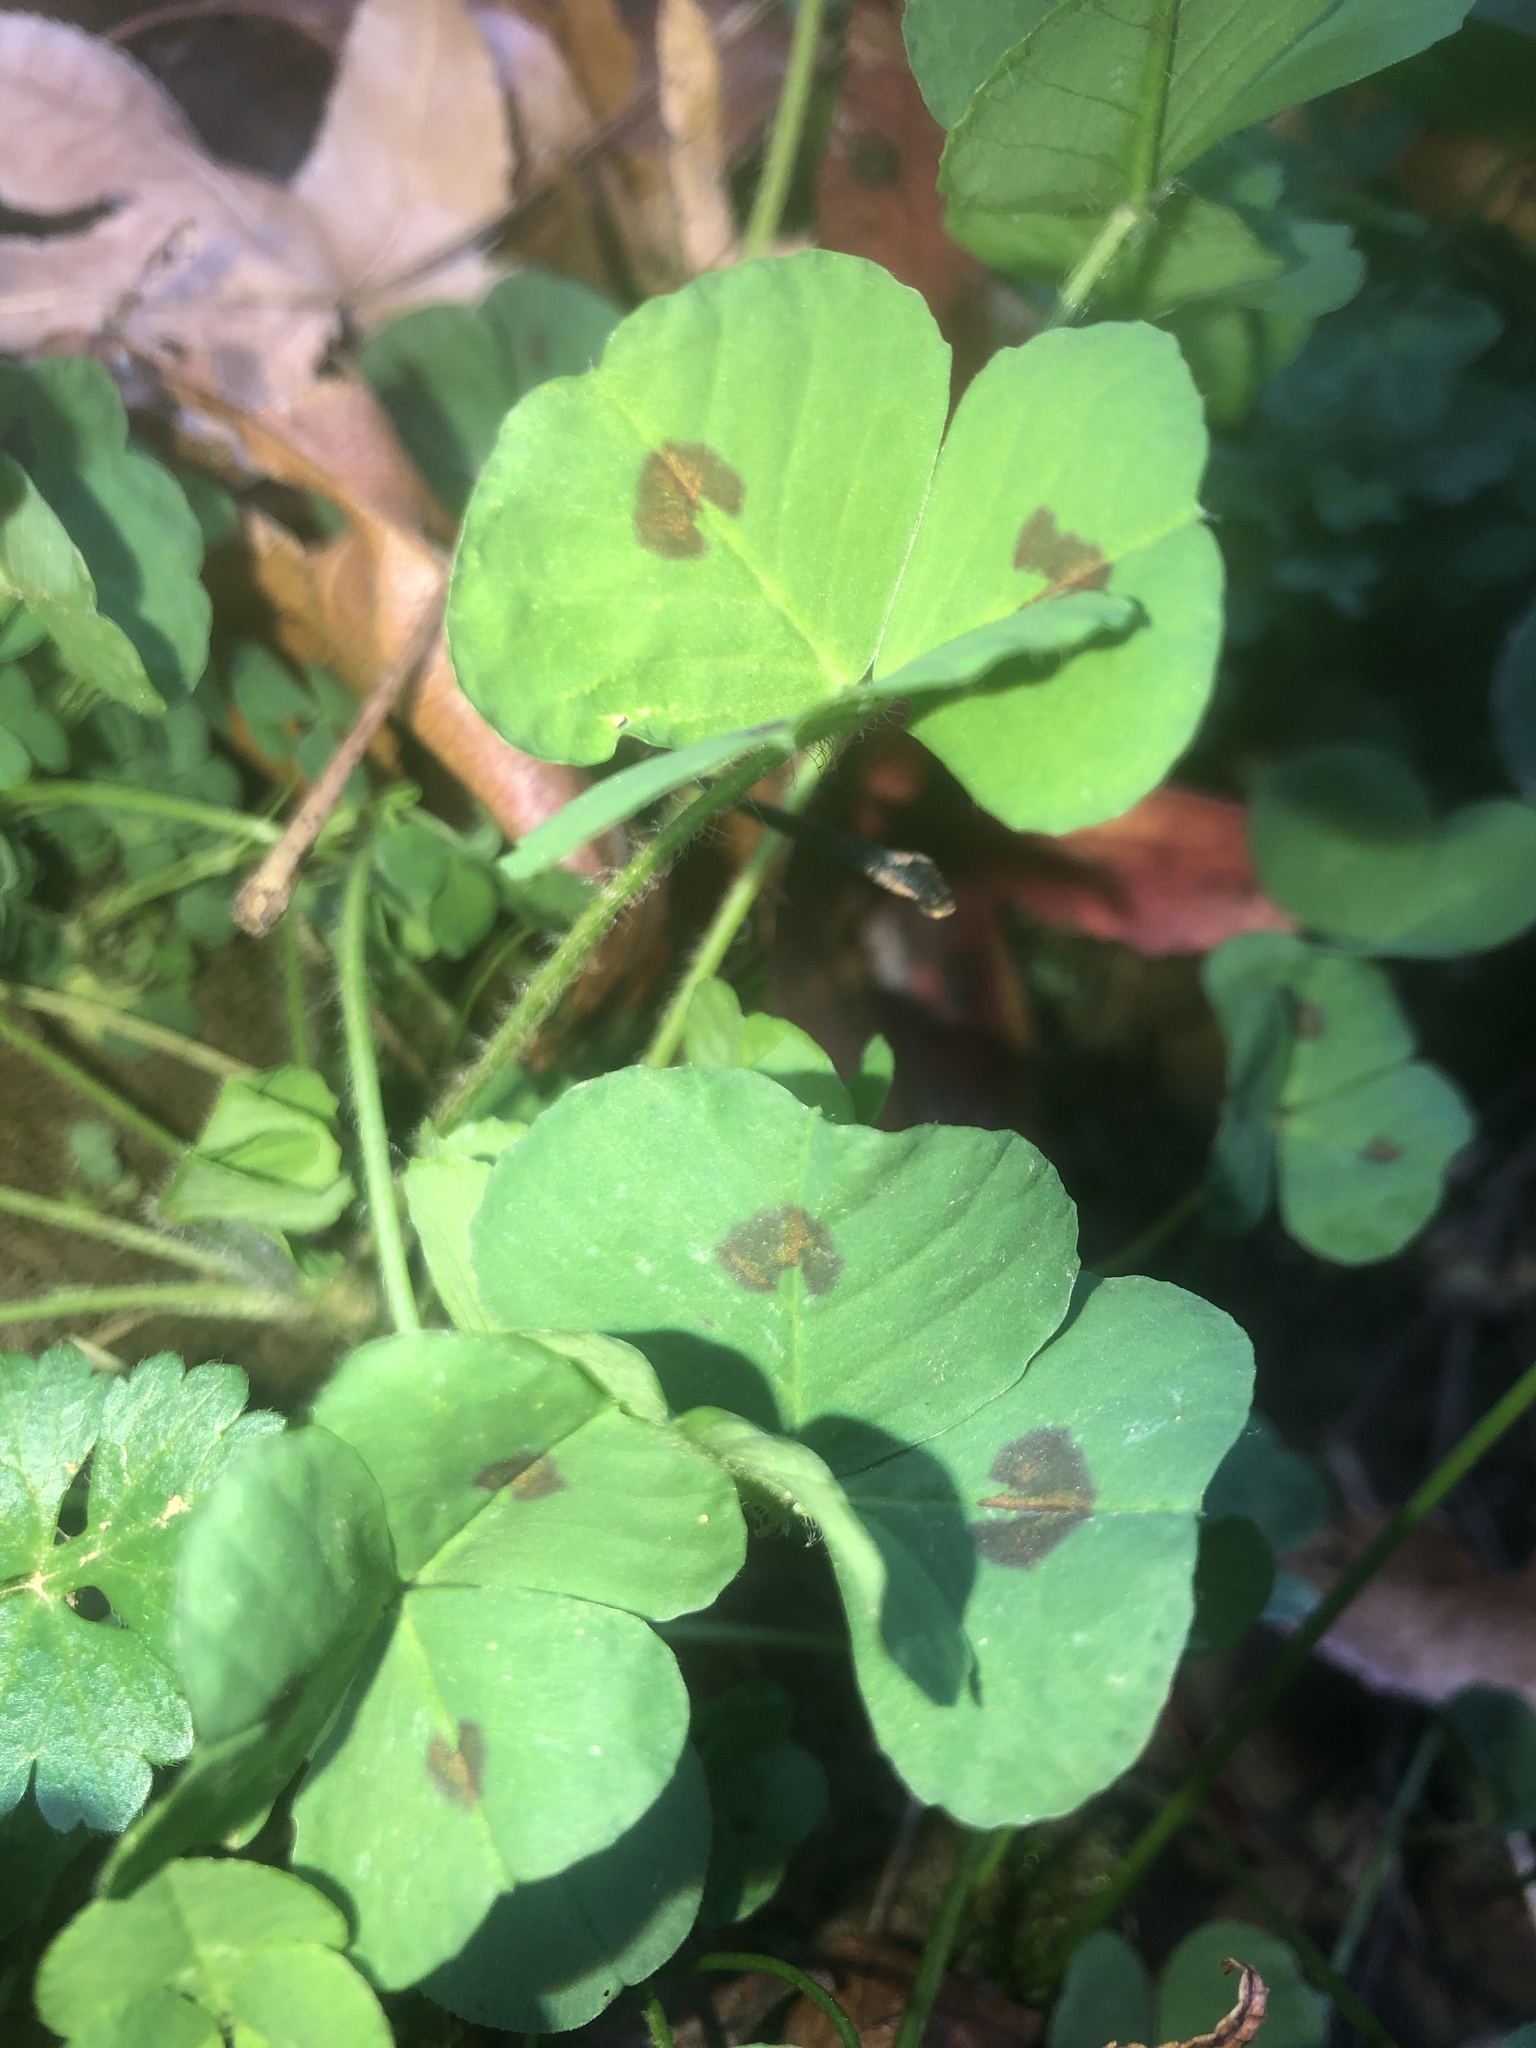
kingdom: Plantae
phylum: Tracheophyta
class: Magnoliopsida
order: Fabales
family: Fabaceae
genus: Medicago
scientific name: Medicago arabica
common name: Spotted medick
